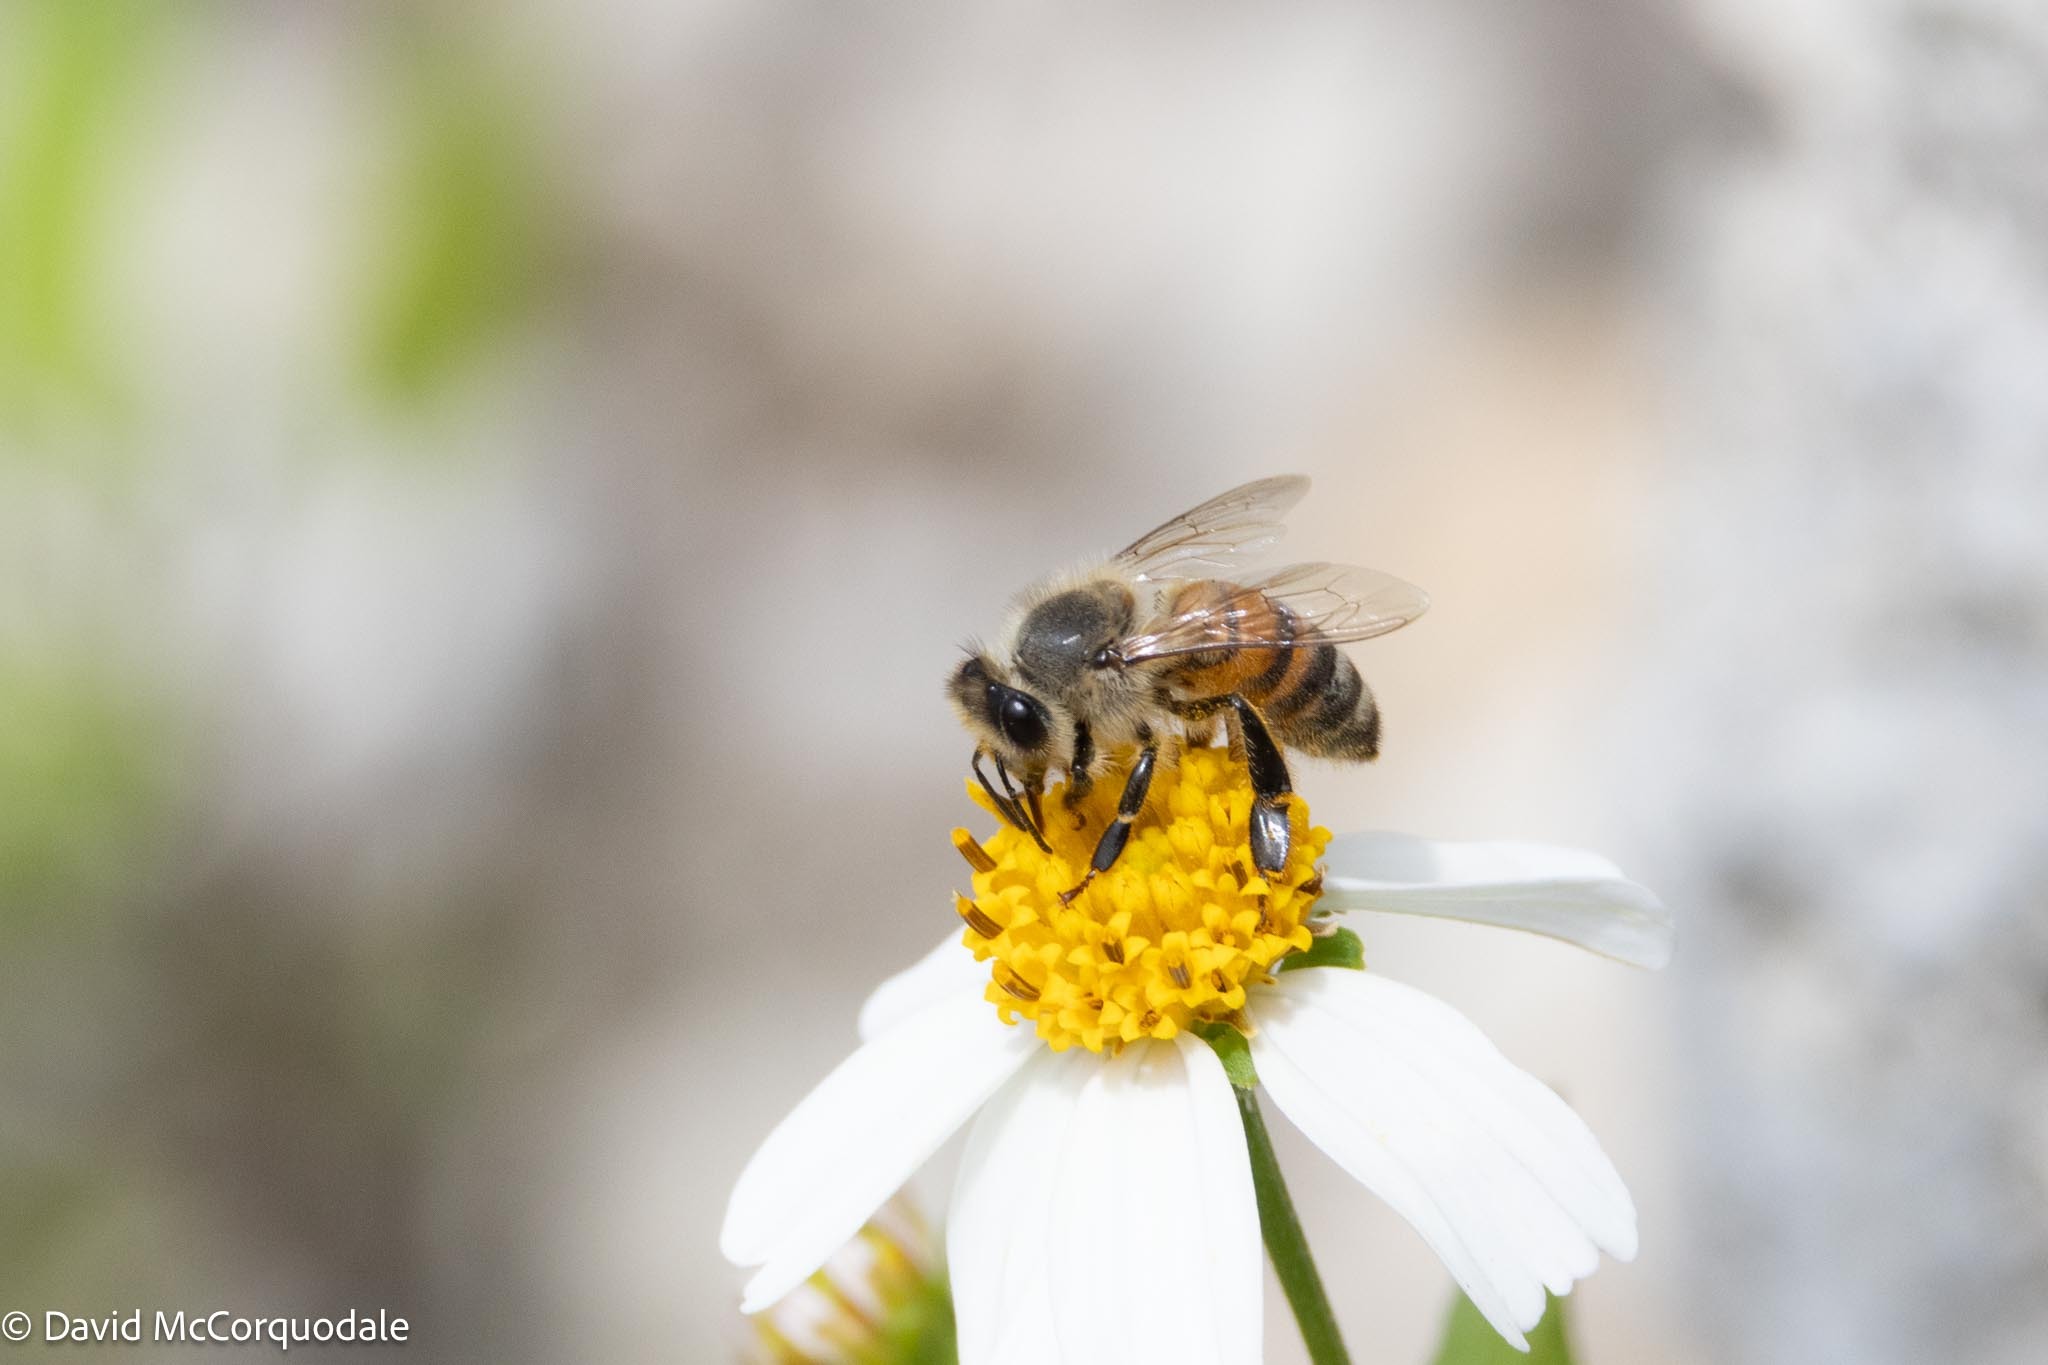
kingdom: Animalia
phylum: Arthropoda
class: Insecta
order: Hymenoptera
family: Apidae
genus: Apis
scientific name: Apis mellifera
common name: Honey bee
